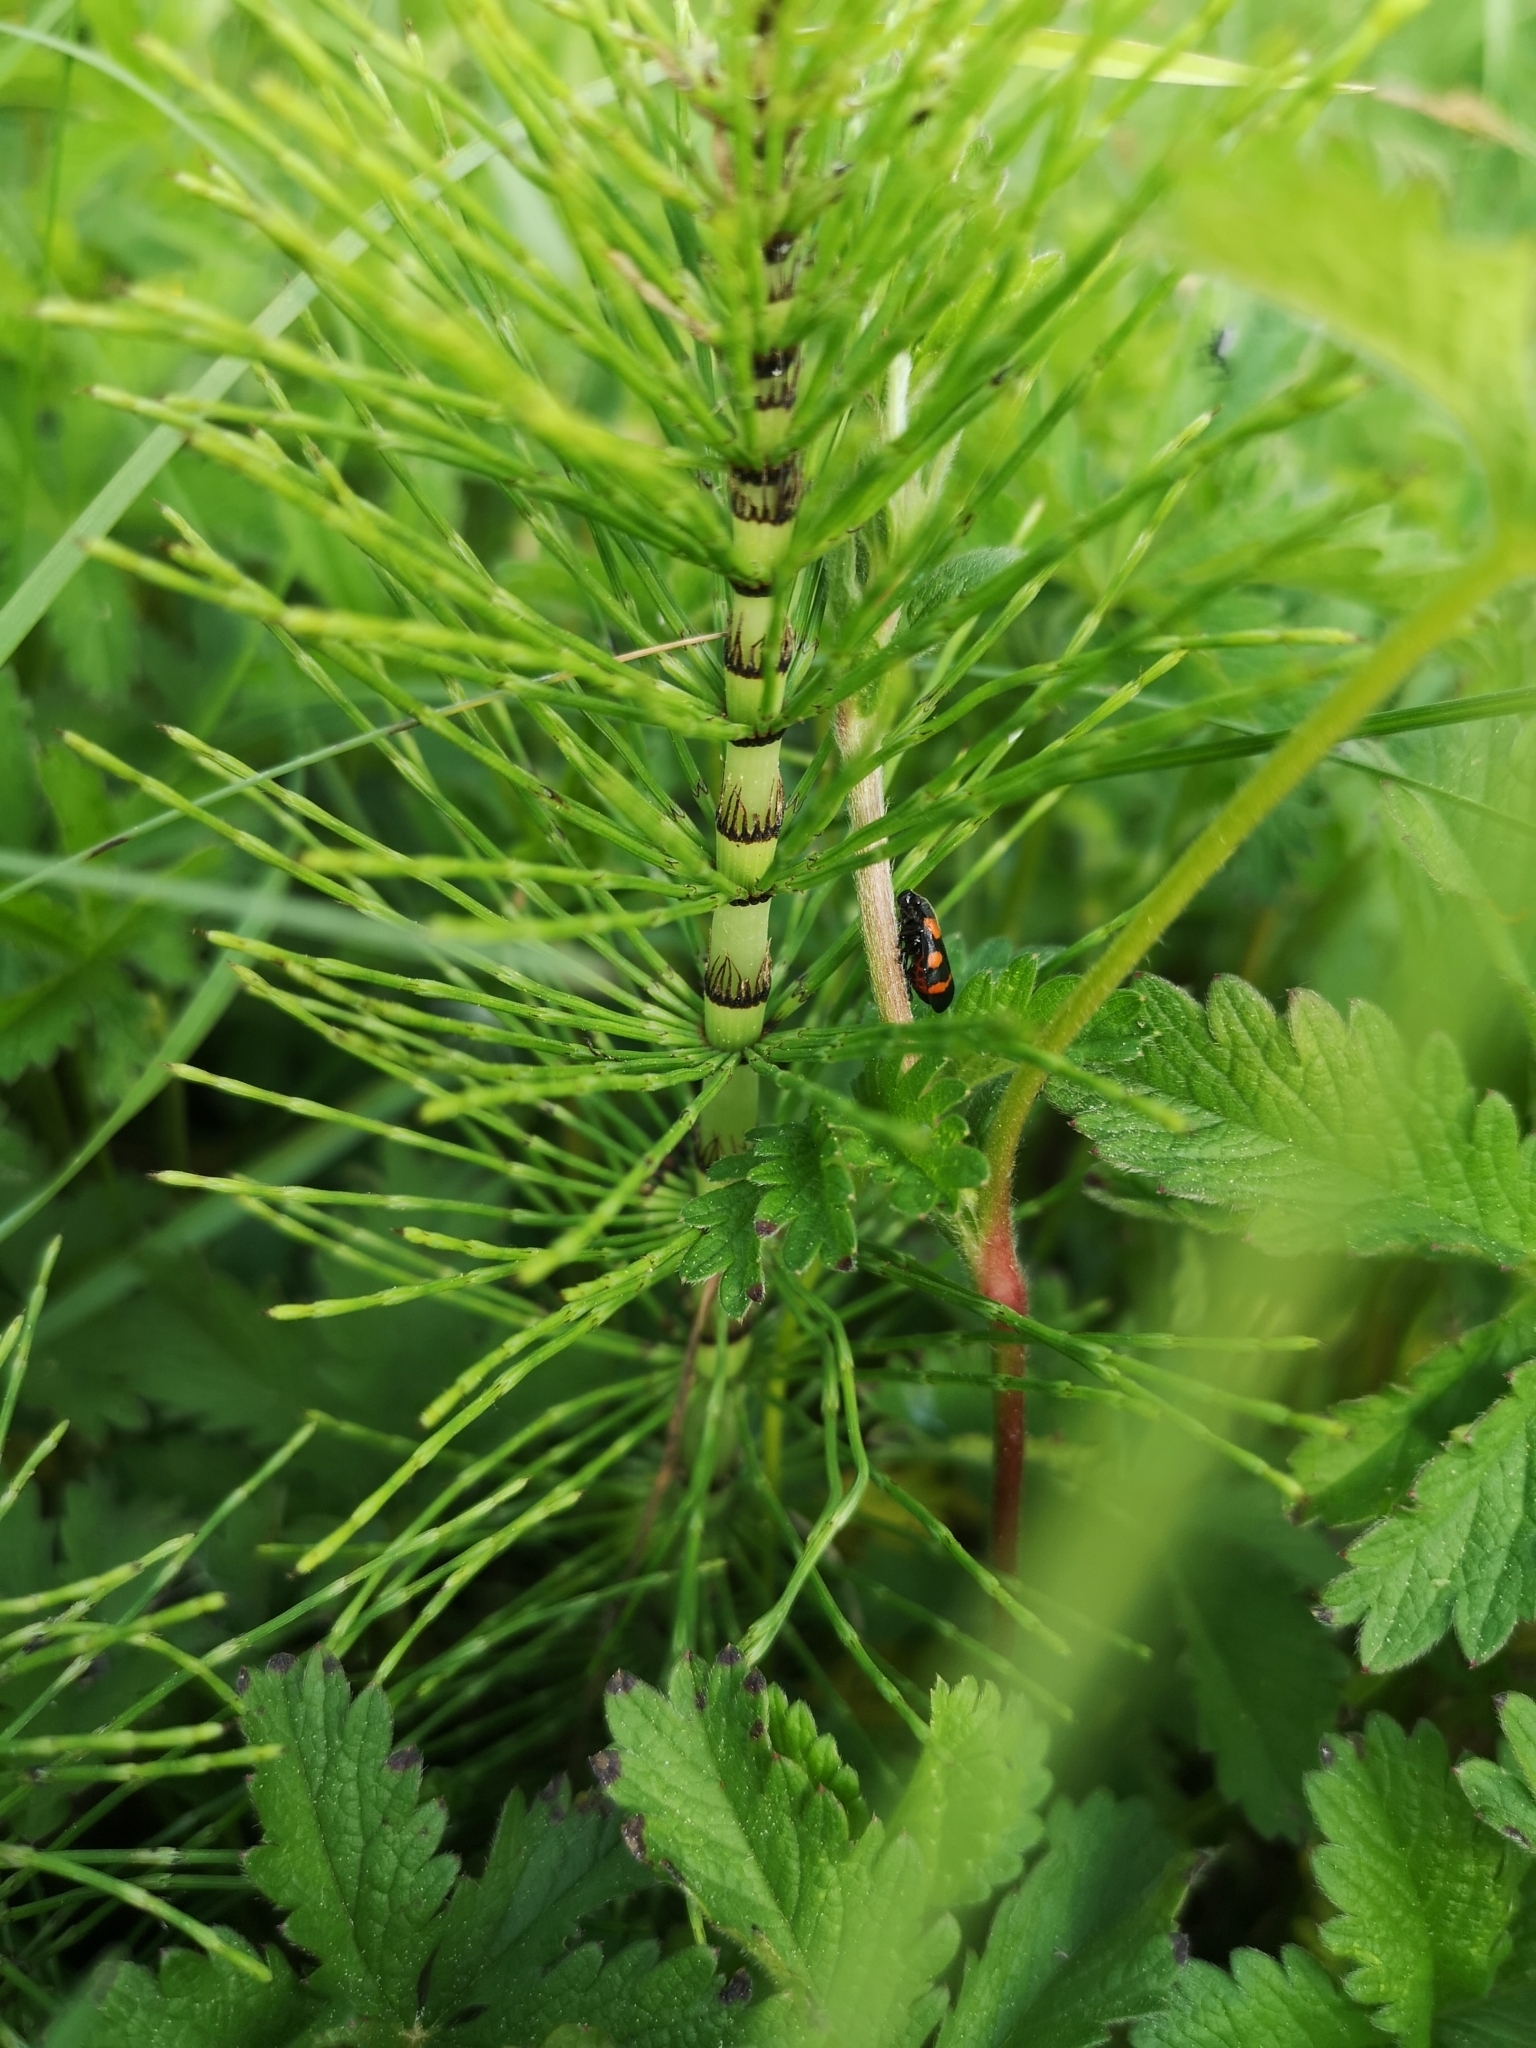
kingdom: Plantae
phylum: Tracheophyta
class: Polypodiopsida
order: Equisetales
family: Equisetaceae
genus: Equisetum
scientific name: Equisetum telmateia
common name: Great horsetail
